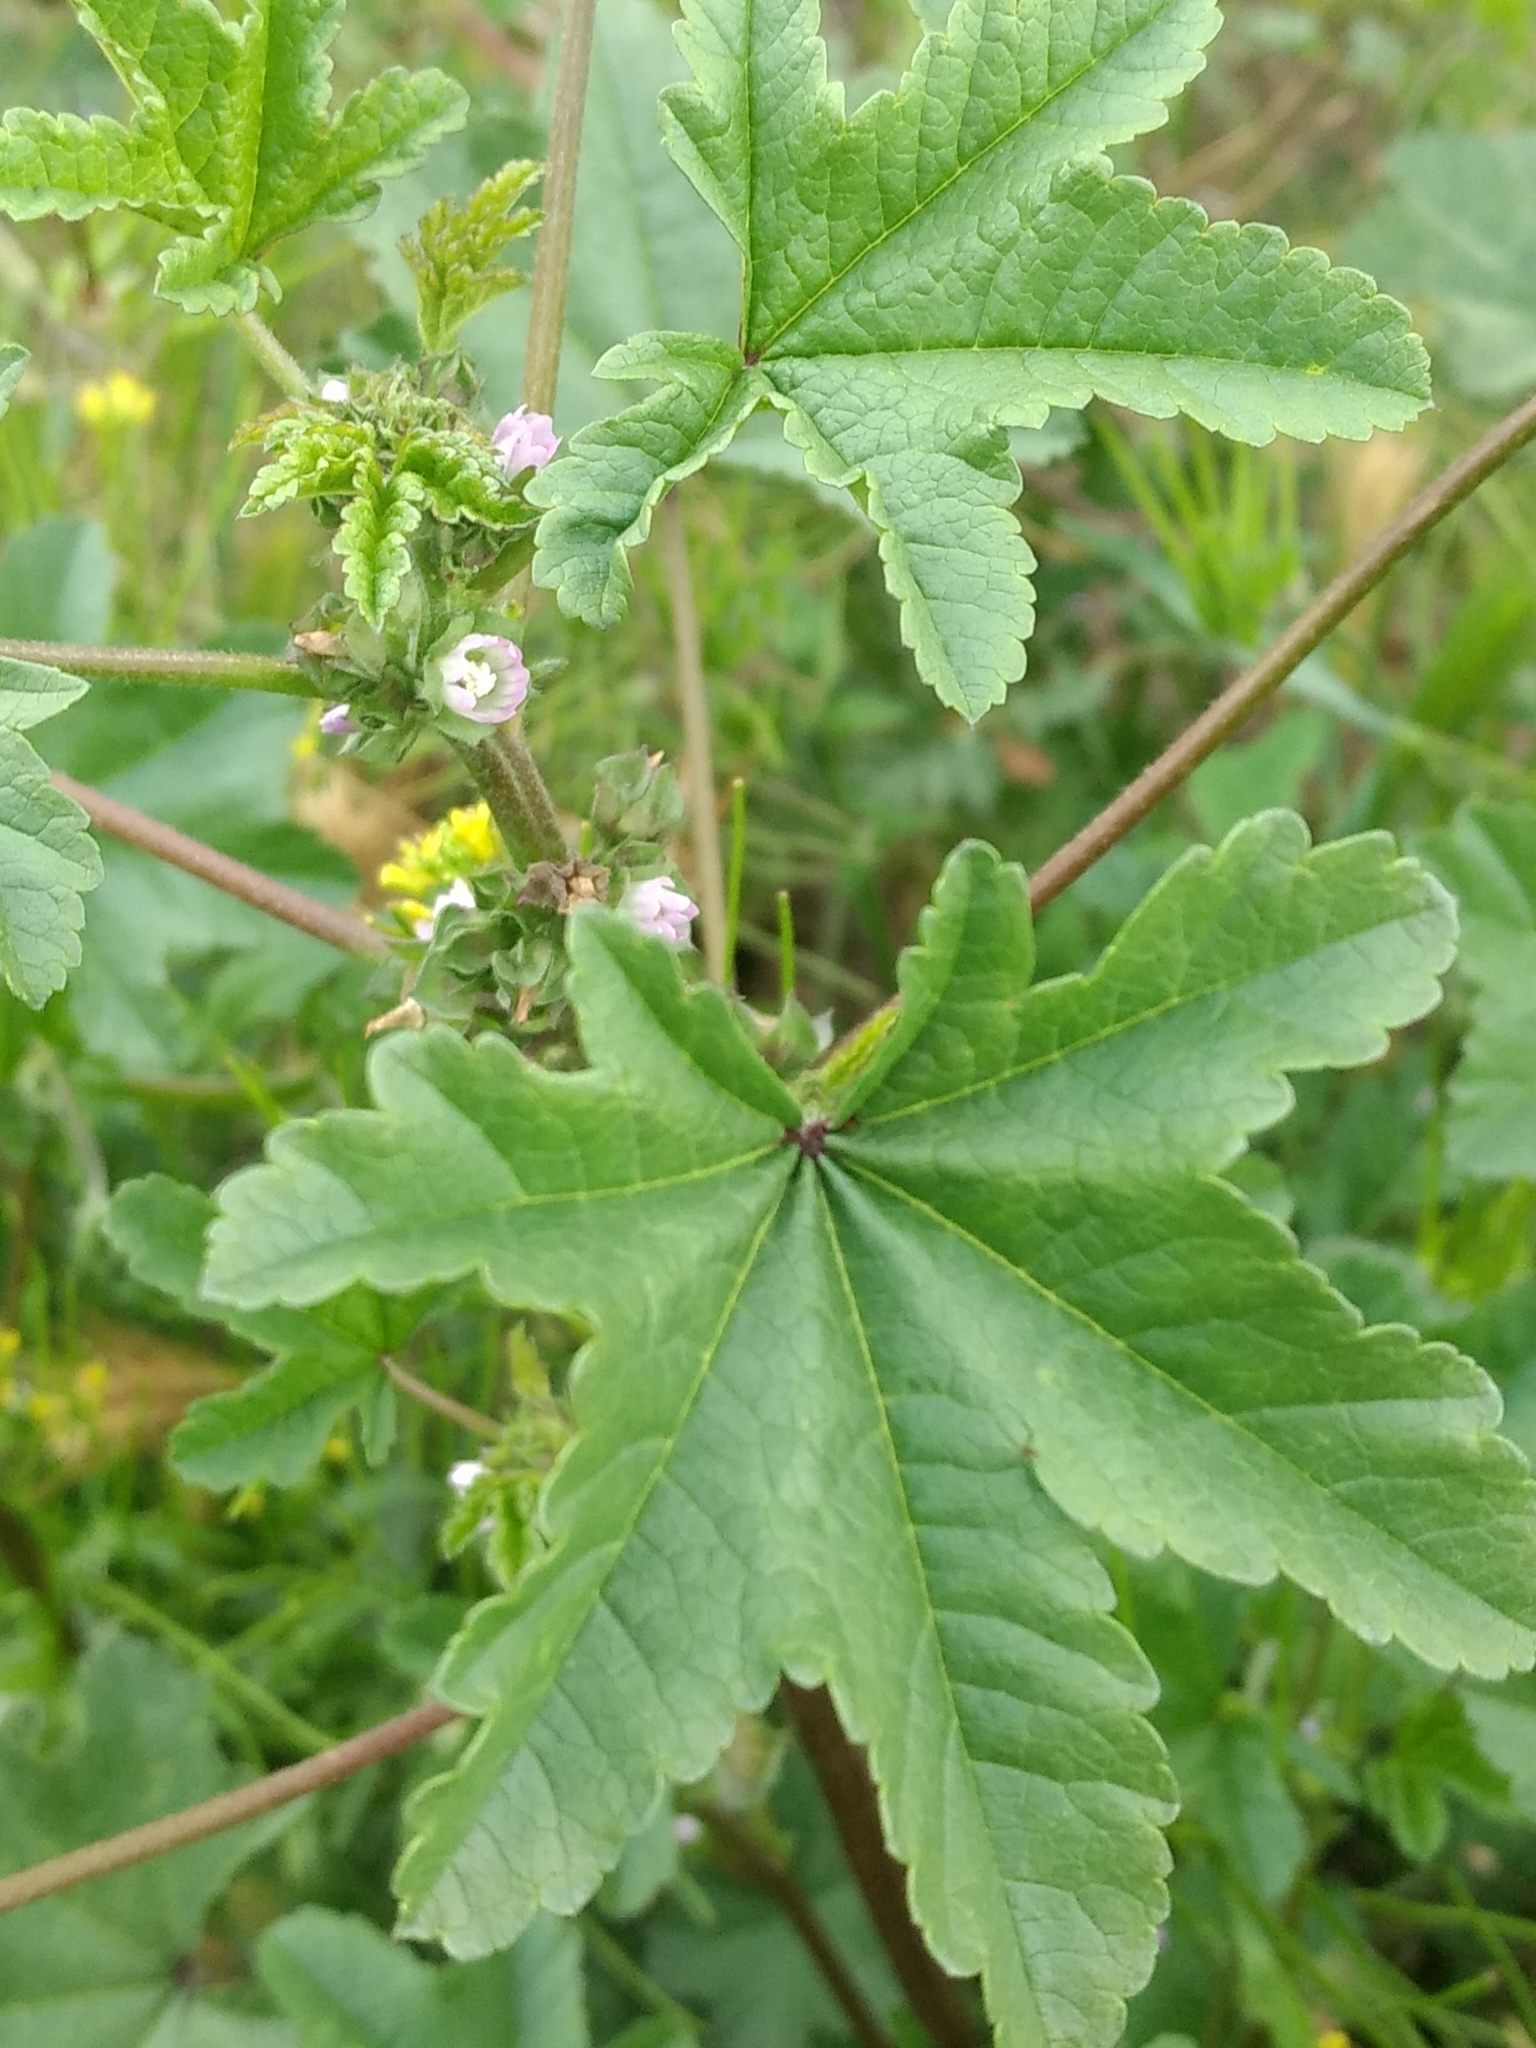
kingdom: Plantae
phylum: Tracheophyta
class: Magnoliopsida
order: Malvales
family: Malvaceae
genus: Malva
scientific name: Malva parviflora
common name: Least mallow
